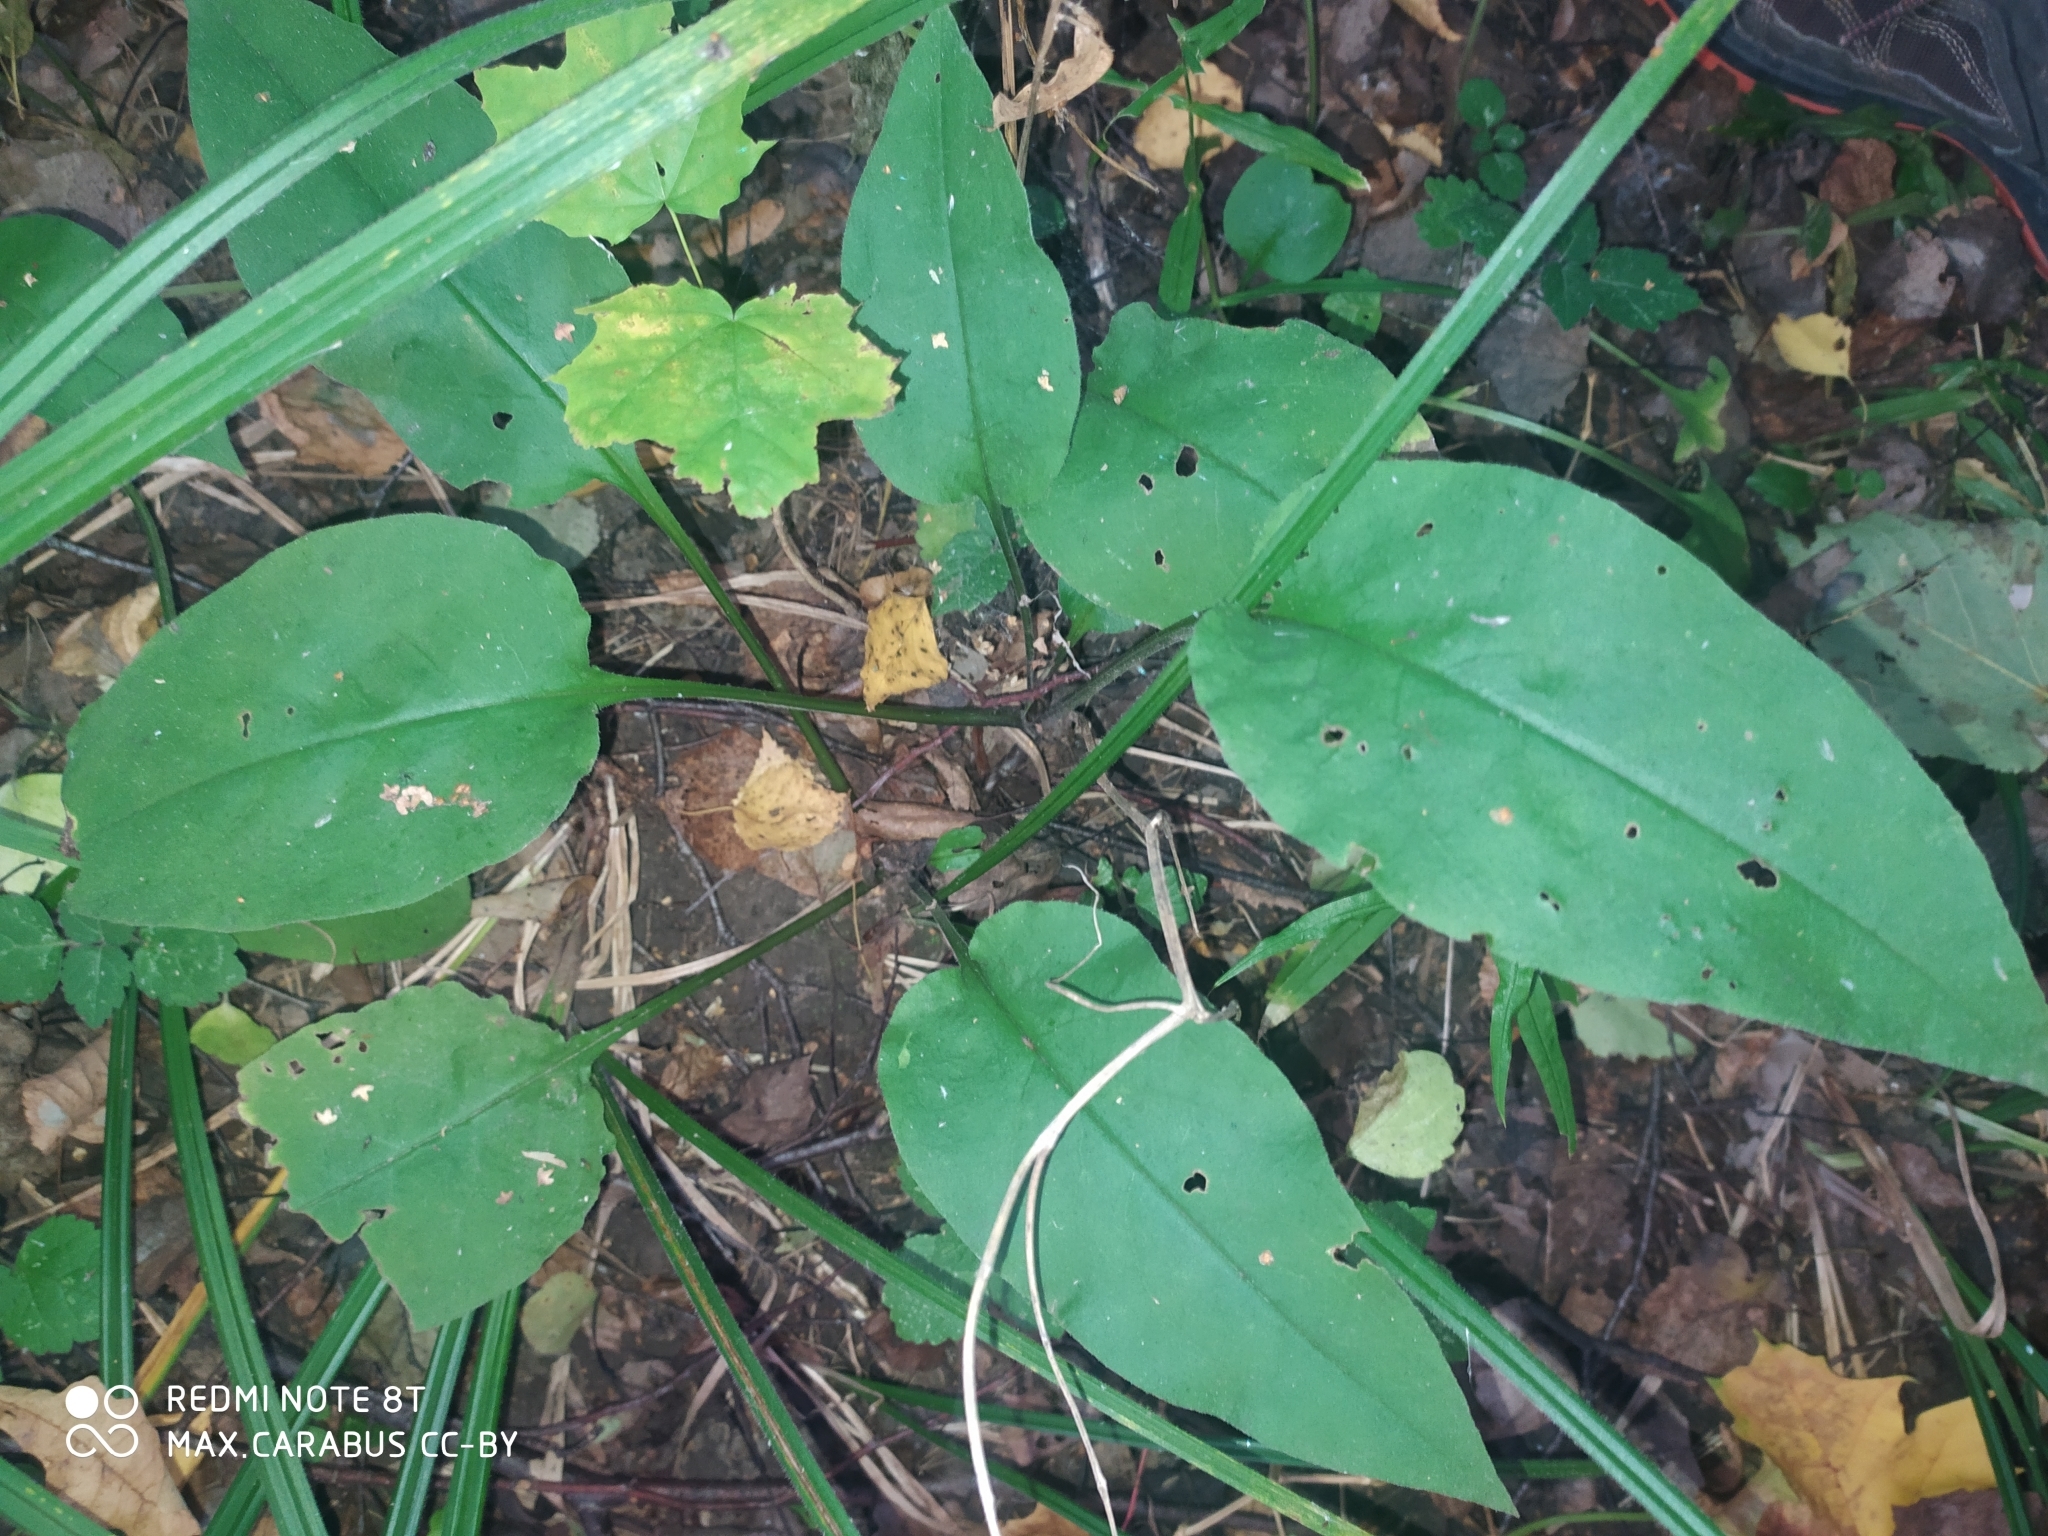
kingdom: Plantae
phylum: Tracheophyta
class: Magnoliopsida
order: Boraginales
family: Boraginaceae
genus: Pulmonaria
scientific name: Pulmonaria obscura
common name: Suffolk lungwort
